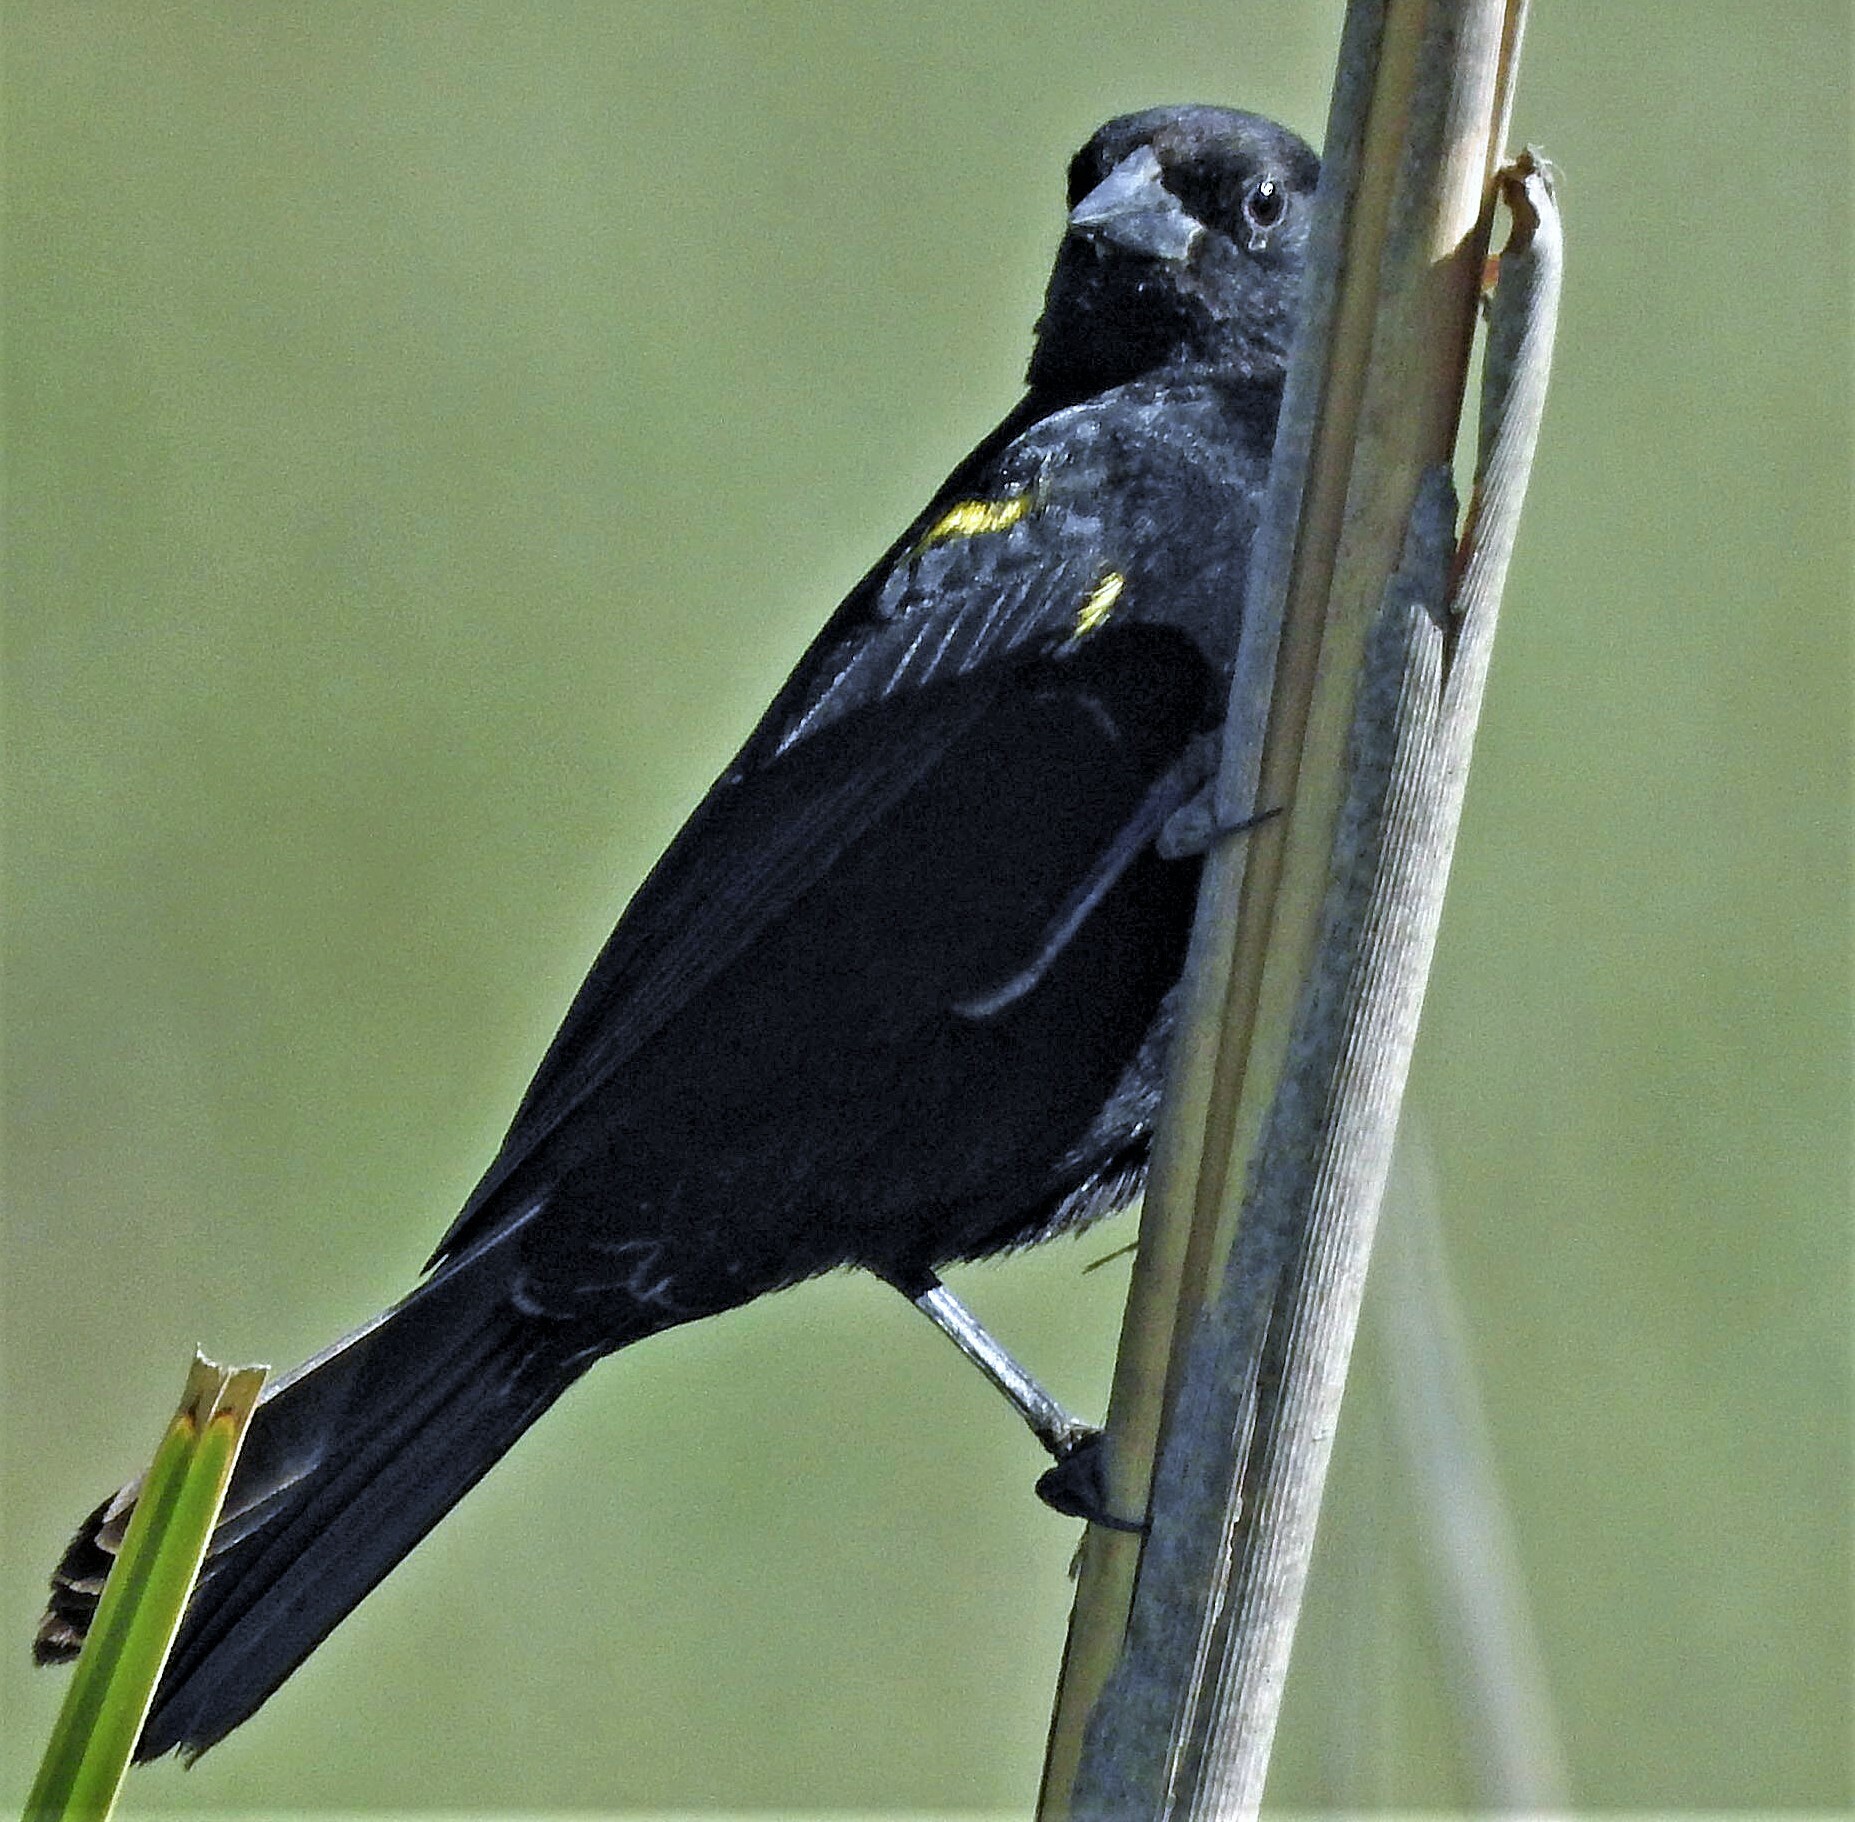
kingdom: Animalia
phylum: Chordata
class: Aves
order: Passeriformes
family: Icteridae
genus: Agelasticus
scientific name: Agelasticus thilius
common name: Yellow-winged blackbird
